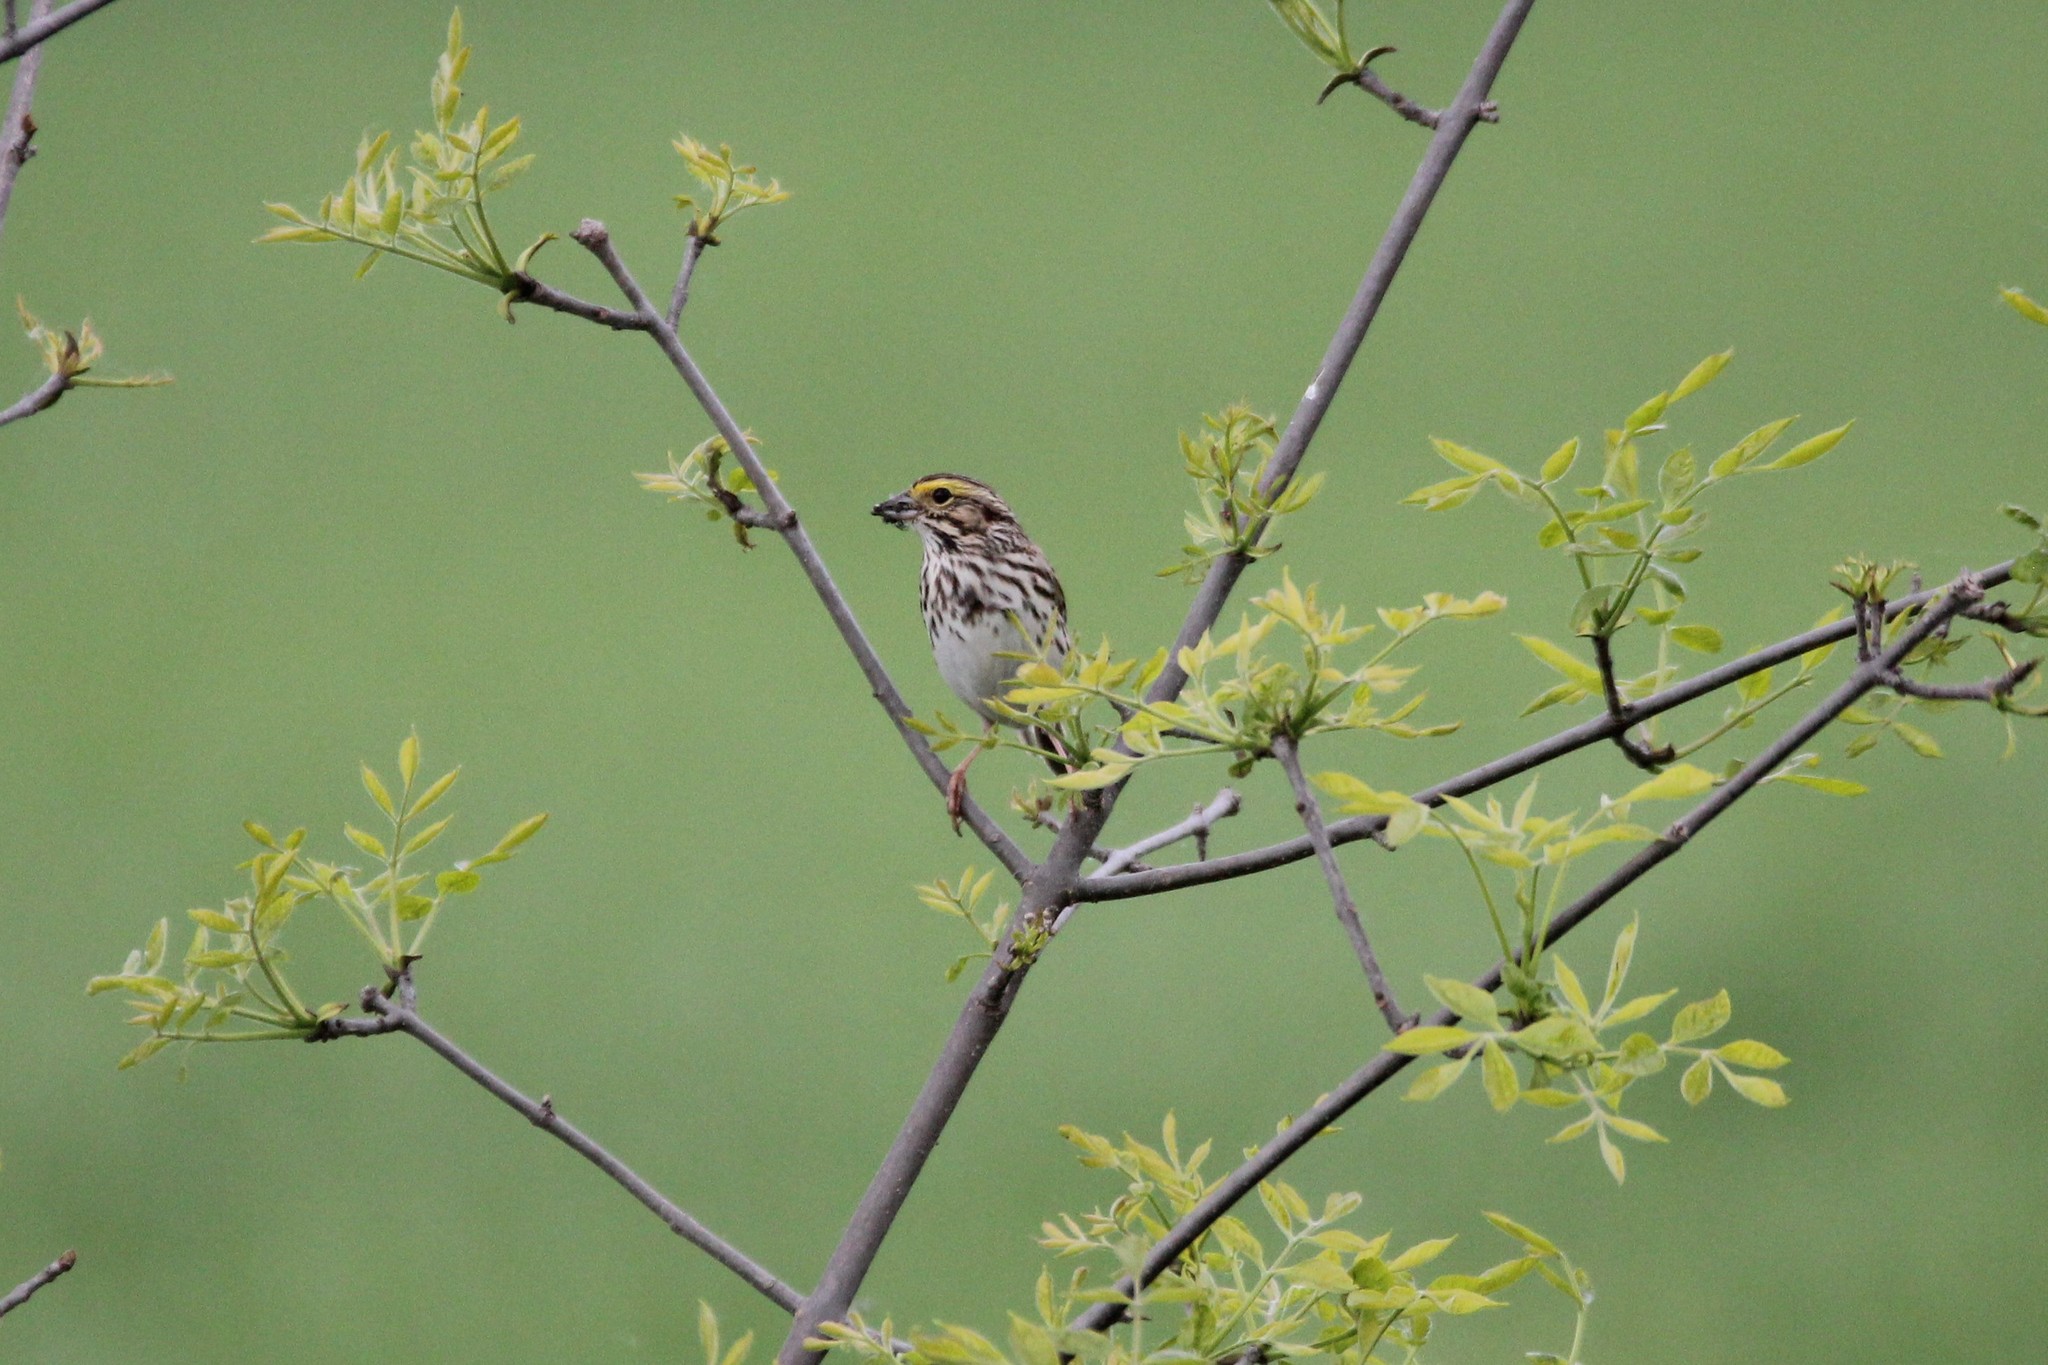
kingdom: Animalia
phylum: Chordata
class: Aves
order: Passeriformes
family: Passerellidae
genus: Passerculus
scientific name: Passerculus sandwichensis
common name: Savannah sparrow
